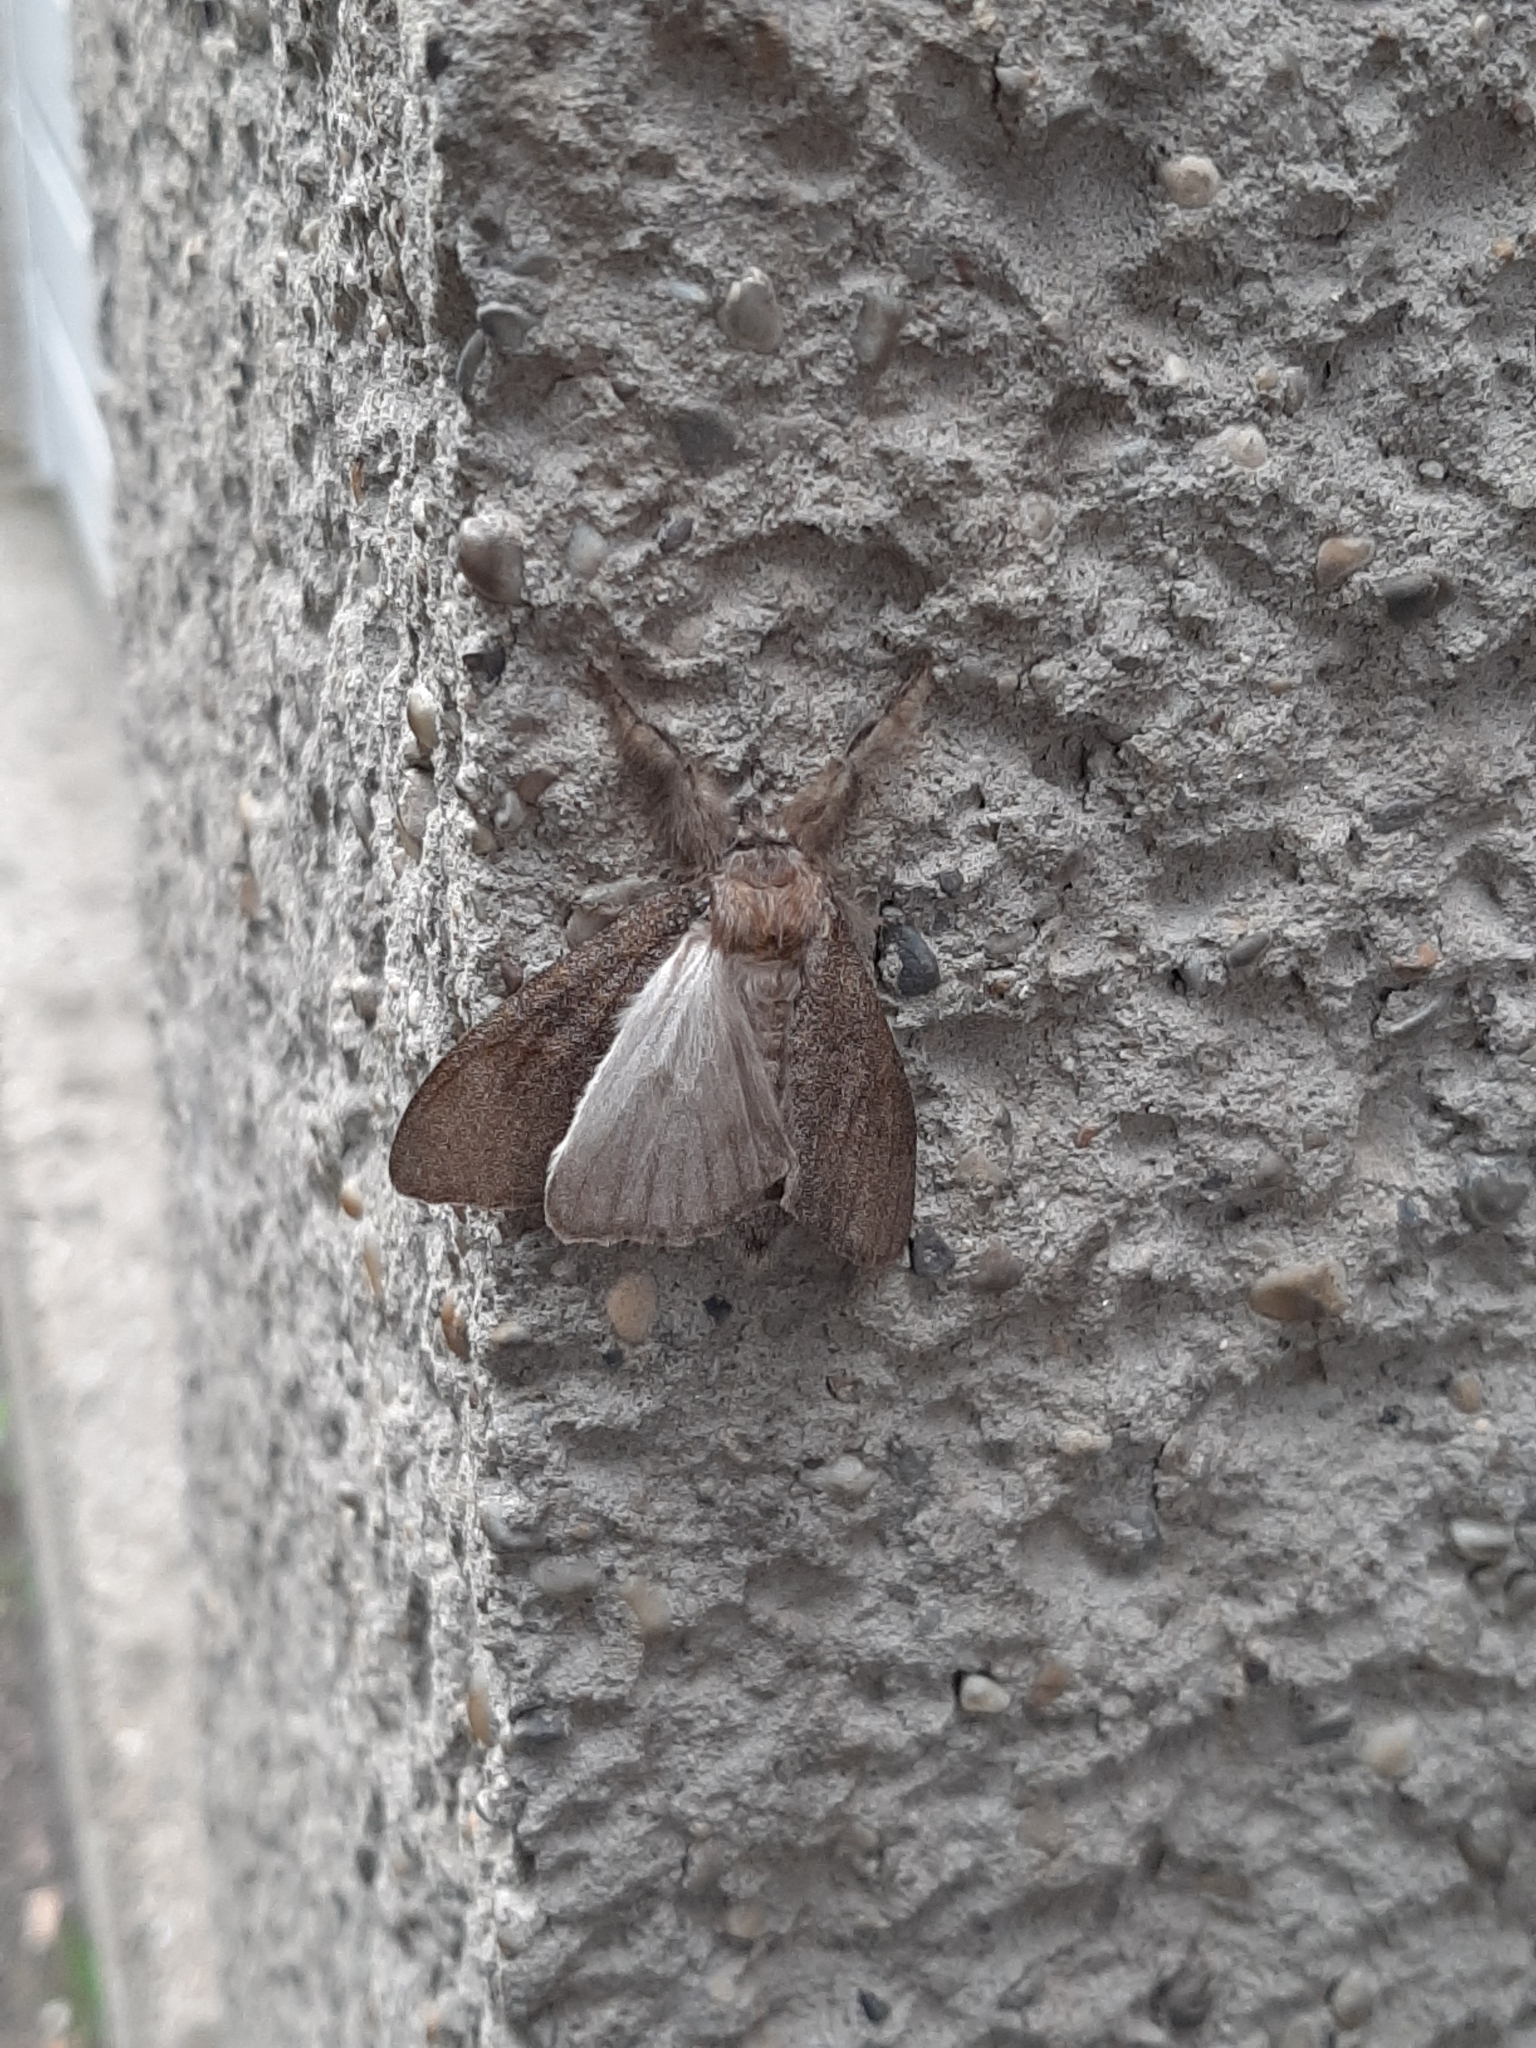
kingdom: Animalia
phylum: Arthropoda
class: Insecta
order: Lepidoptera
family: Erebidae
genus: Calliteara
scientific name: Calliteara pudibunda
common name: Pale tussock
